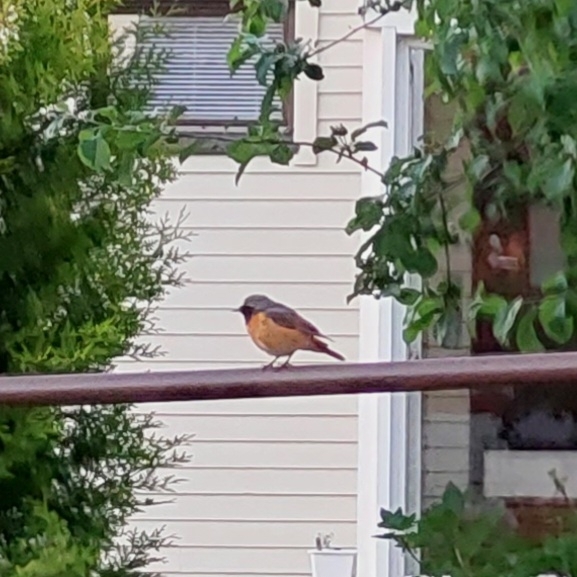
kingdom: Animalia
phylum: Chordata
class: Aves
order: Passeriformes
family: Muscicapidae
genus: Phoenicurus
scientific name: Phoenicurus phoenicurus
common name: Common redstart
